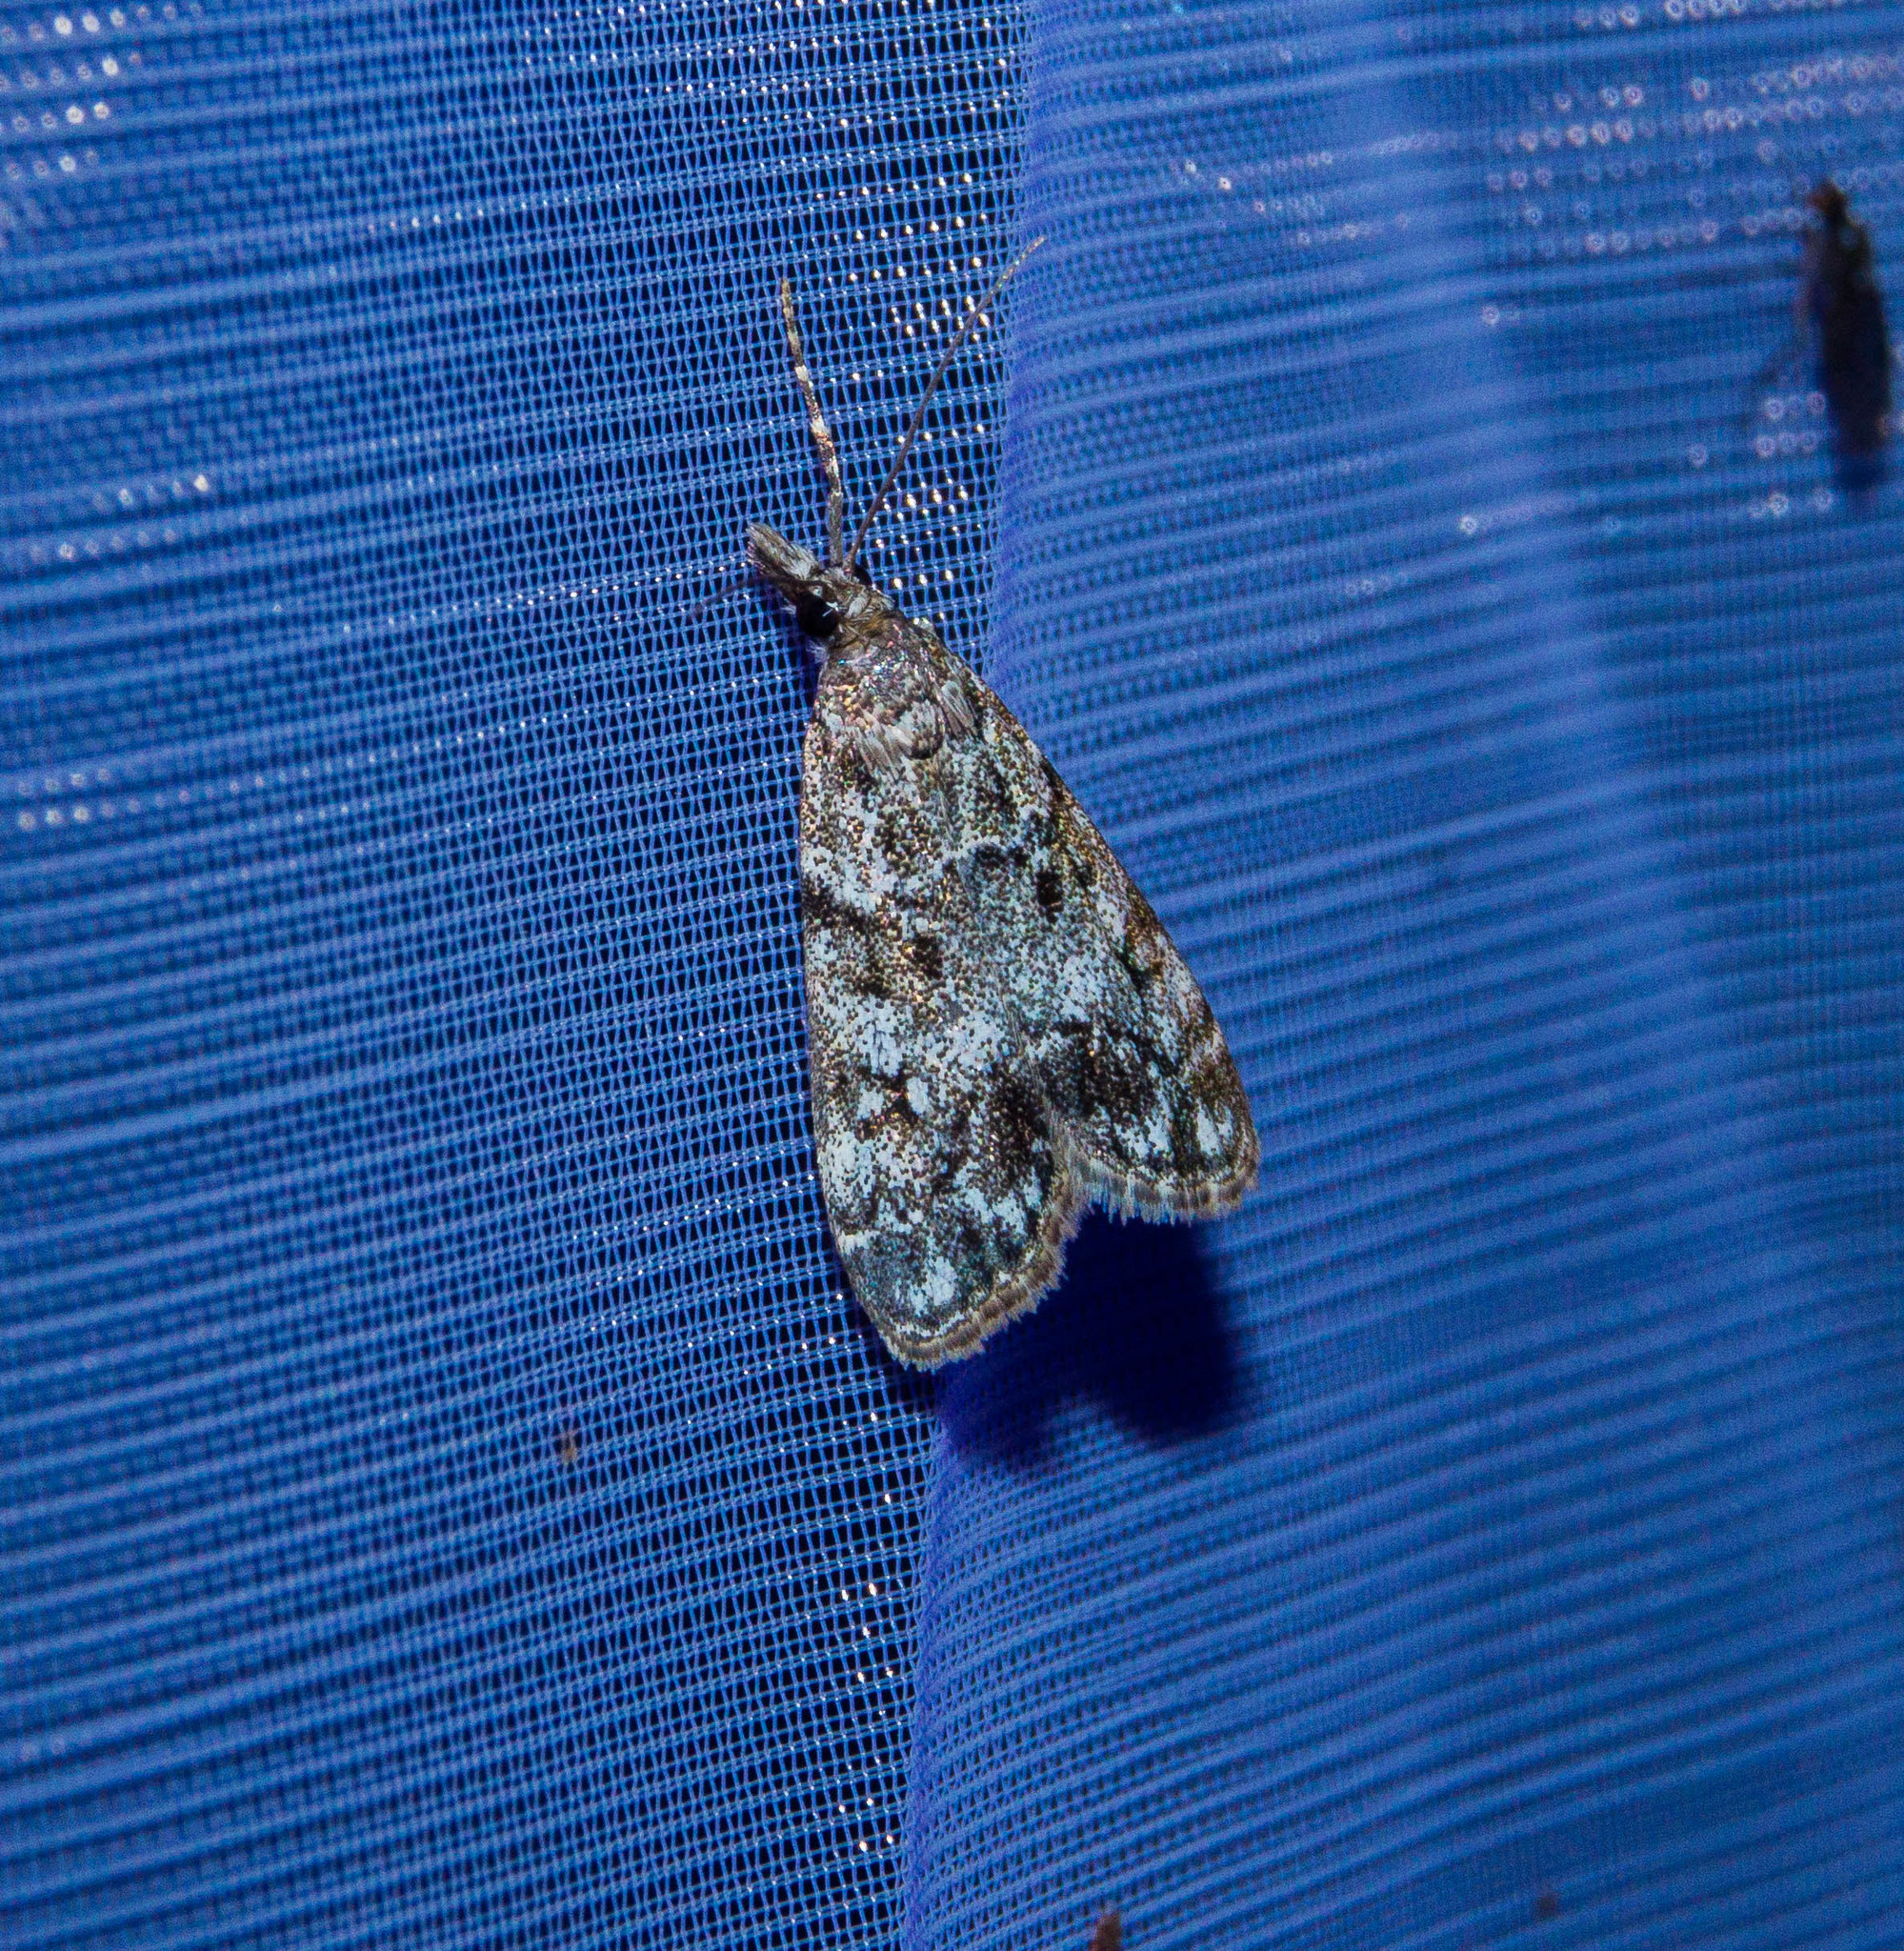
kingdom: Animalia
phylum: Arthropoda
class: Insecta
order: Lepidoptera
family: Crambidae
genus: Eudonia
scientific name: Eudonia lacustrata
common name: Little grey
